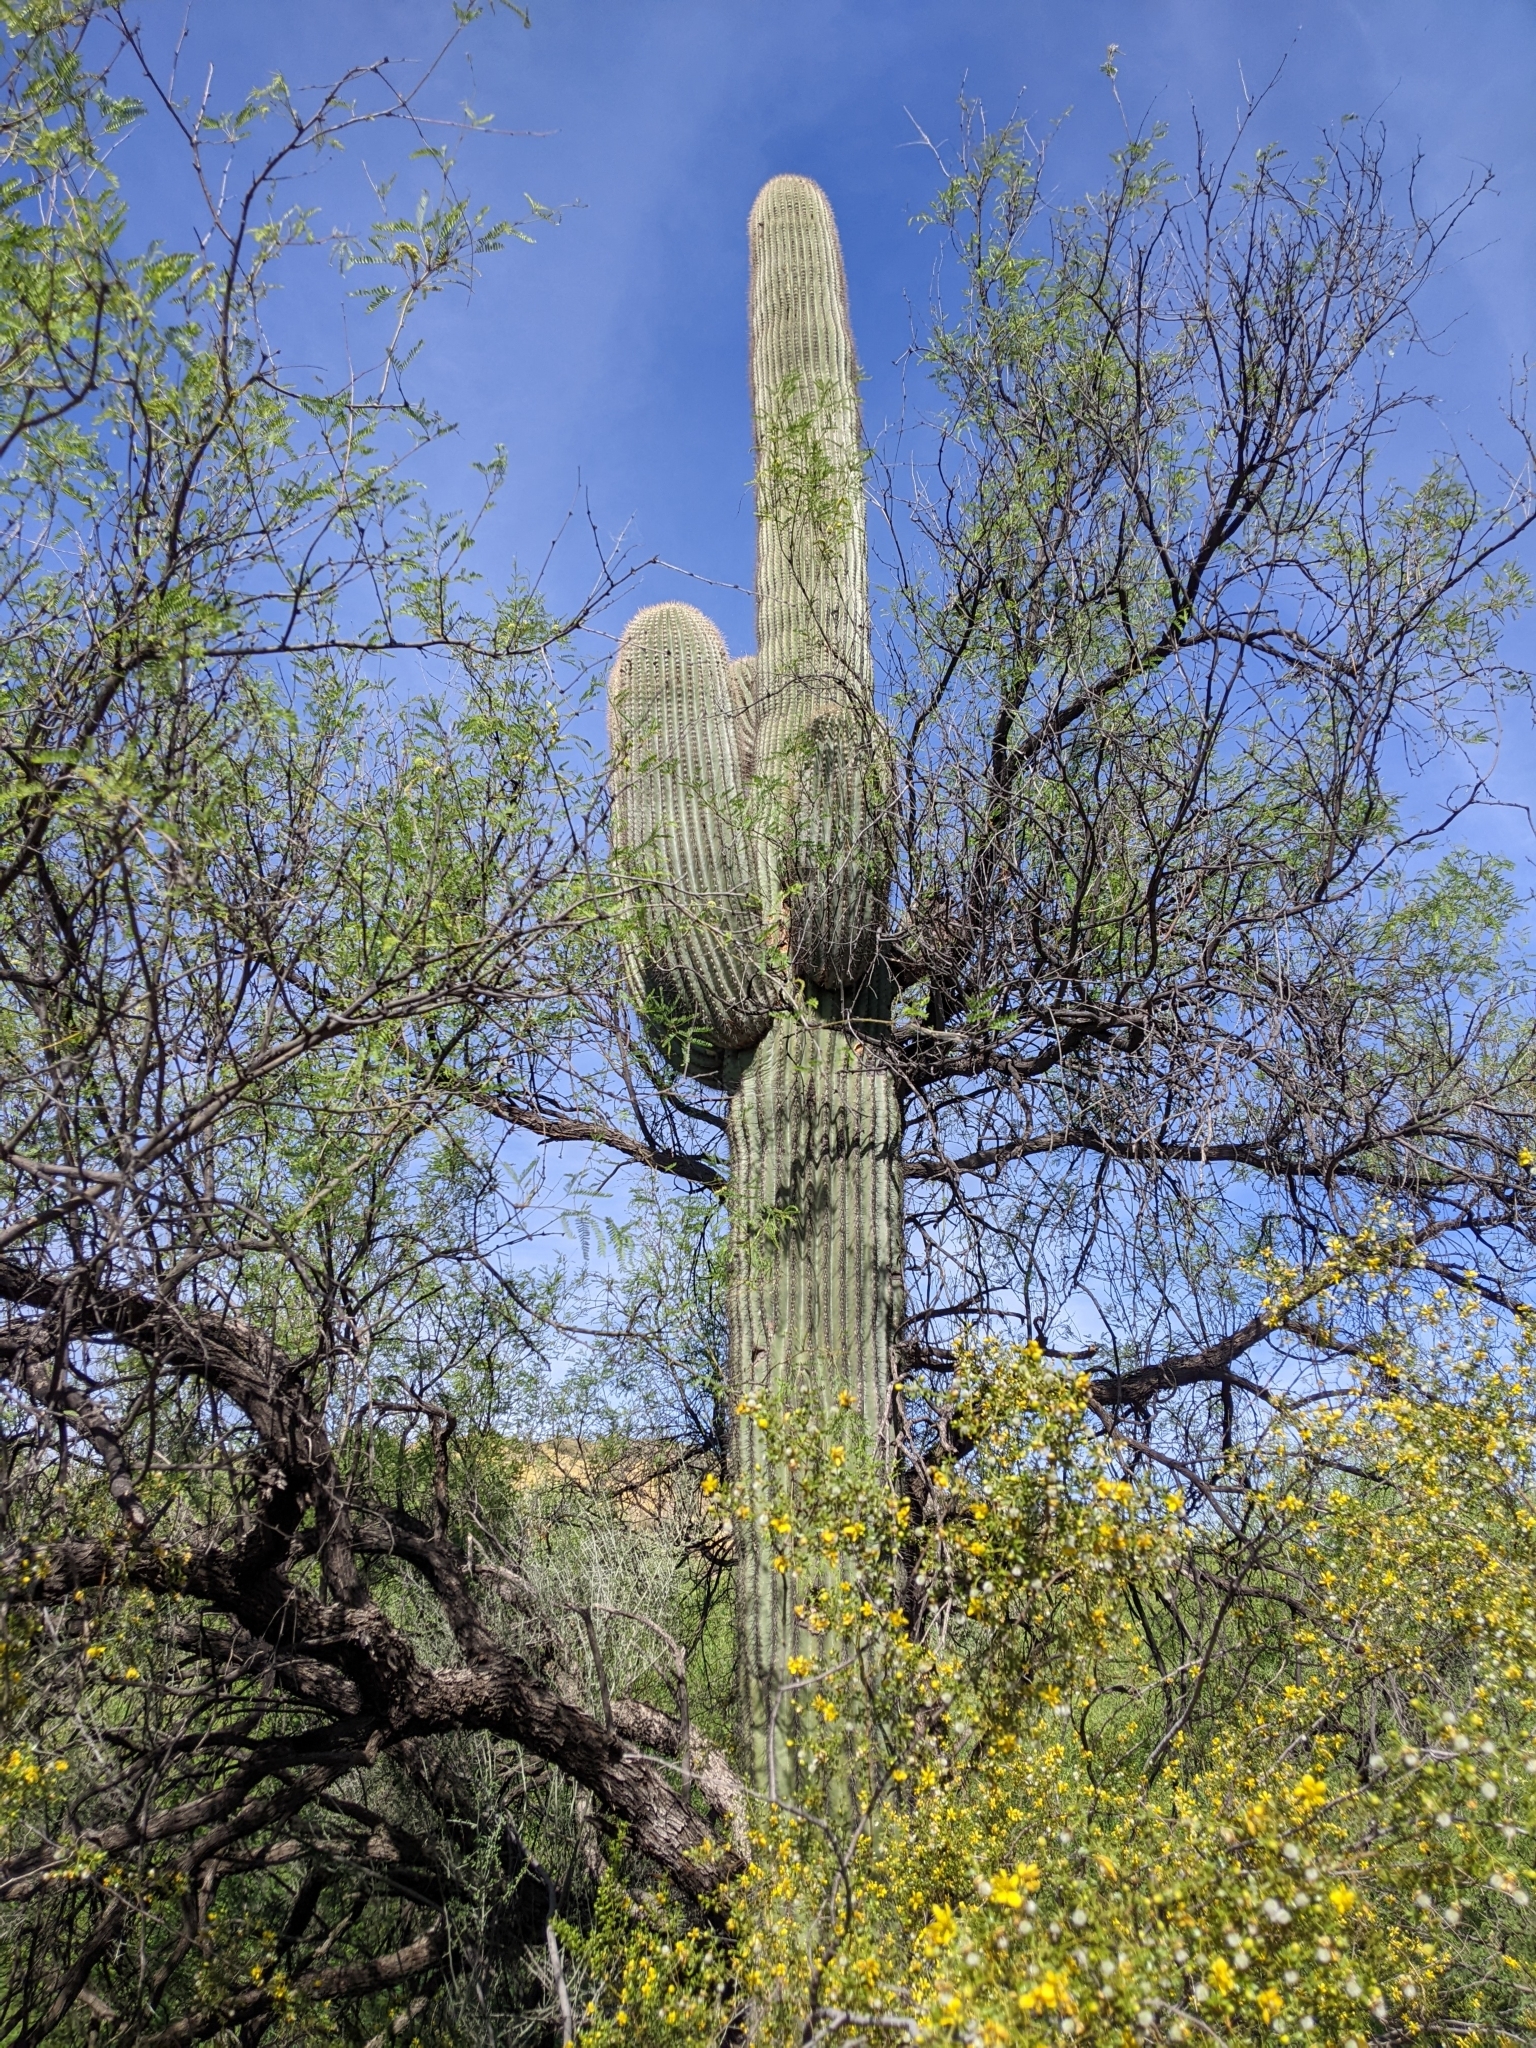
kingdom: Plantae
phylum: Tracheophyta
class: Magnoliopsida
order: Caryophyllales
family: Cactaceae
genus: Carnegiea
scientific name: Carnegiea gigantea
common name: Saguaro
